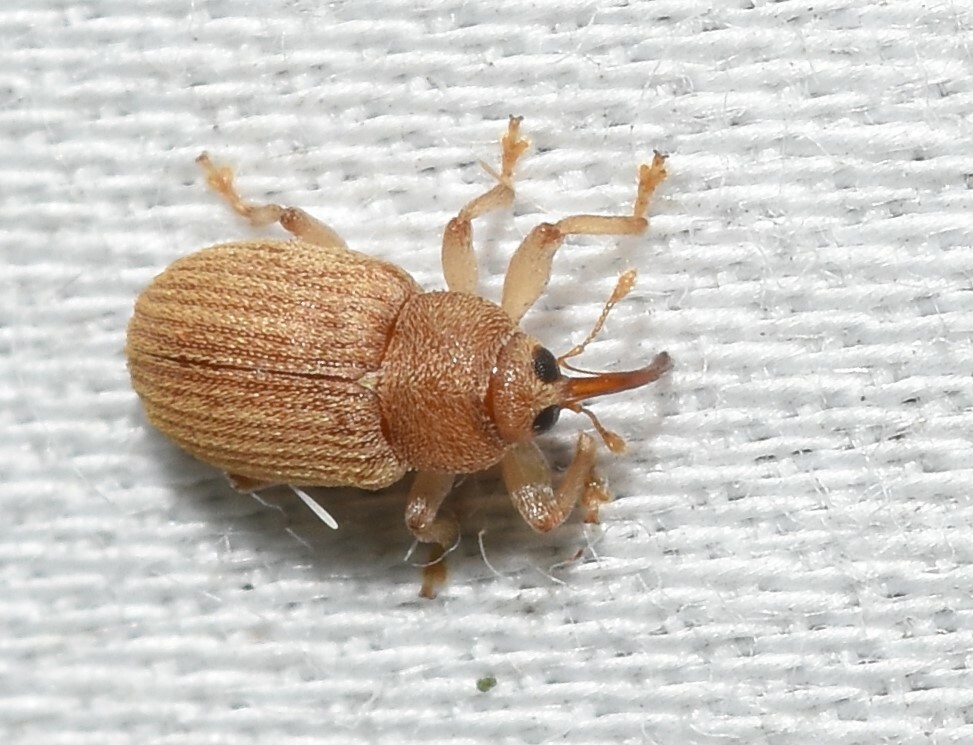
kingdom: Animalia
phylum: Arthropoda
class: Insecta
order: Coleoptera
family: Curculionidae
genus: Lignyodes
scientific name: Lignyodes helvolus
